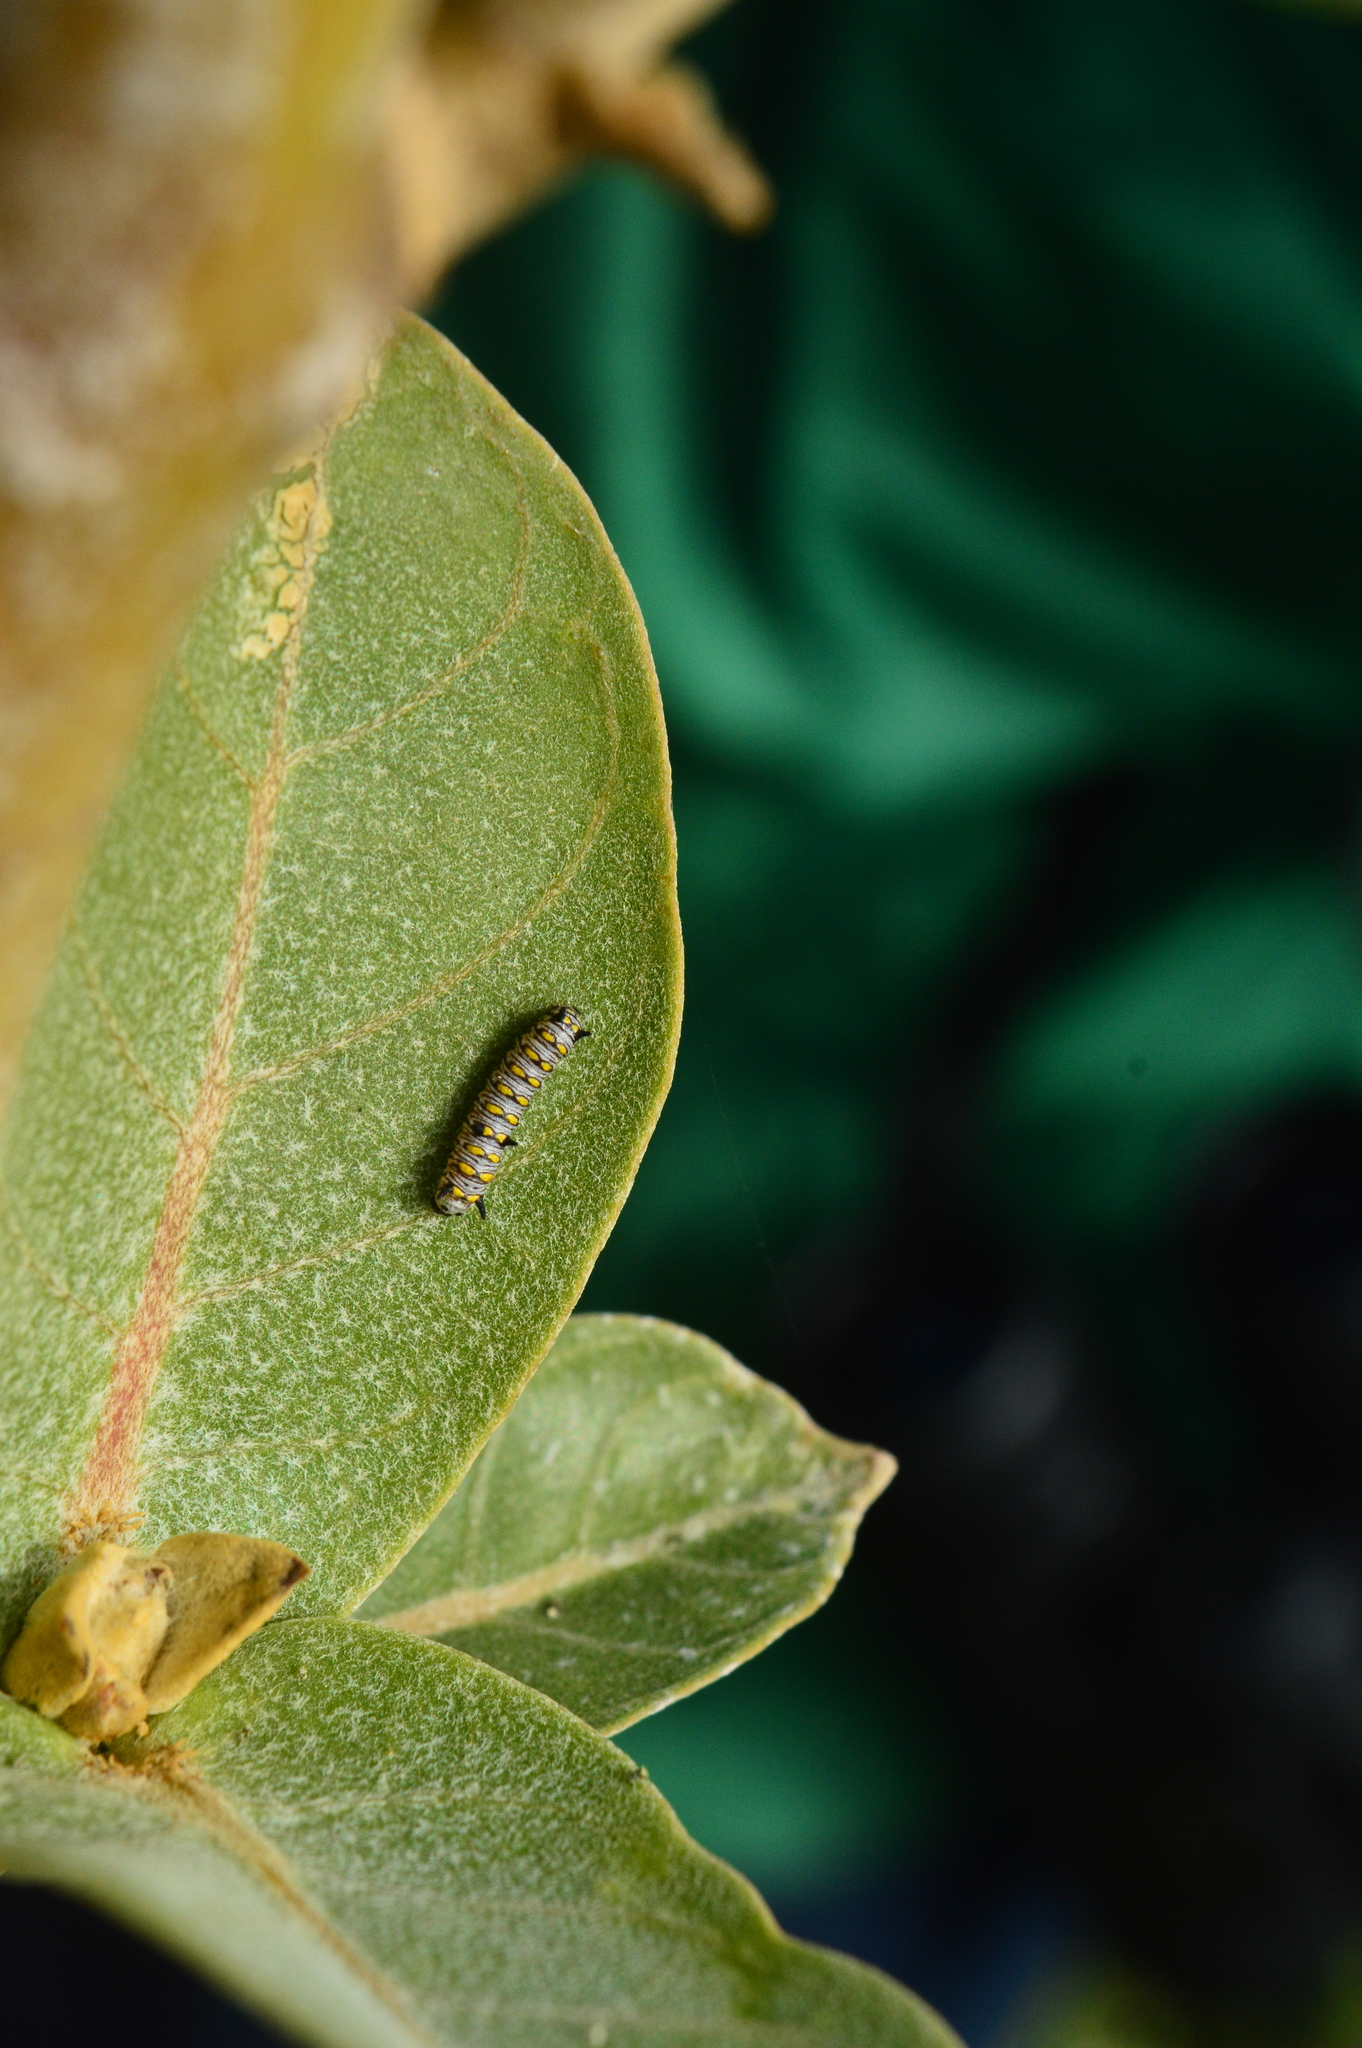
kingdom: Animalia
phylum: Arthropoda
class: Insecta
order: Lepidoptera
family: Nymphalidae
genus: Danaus
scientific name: Danaus chrysippus
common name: Plain tiger
